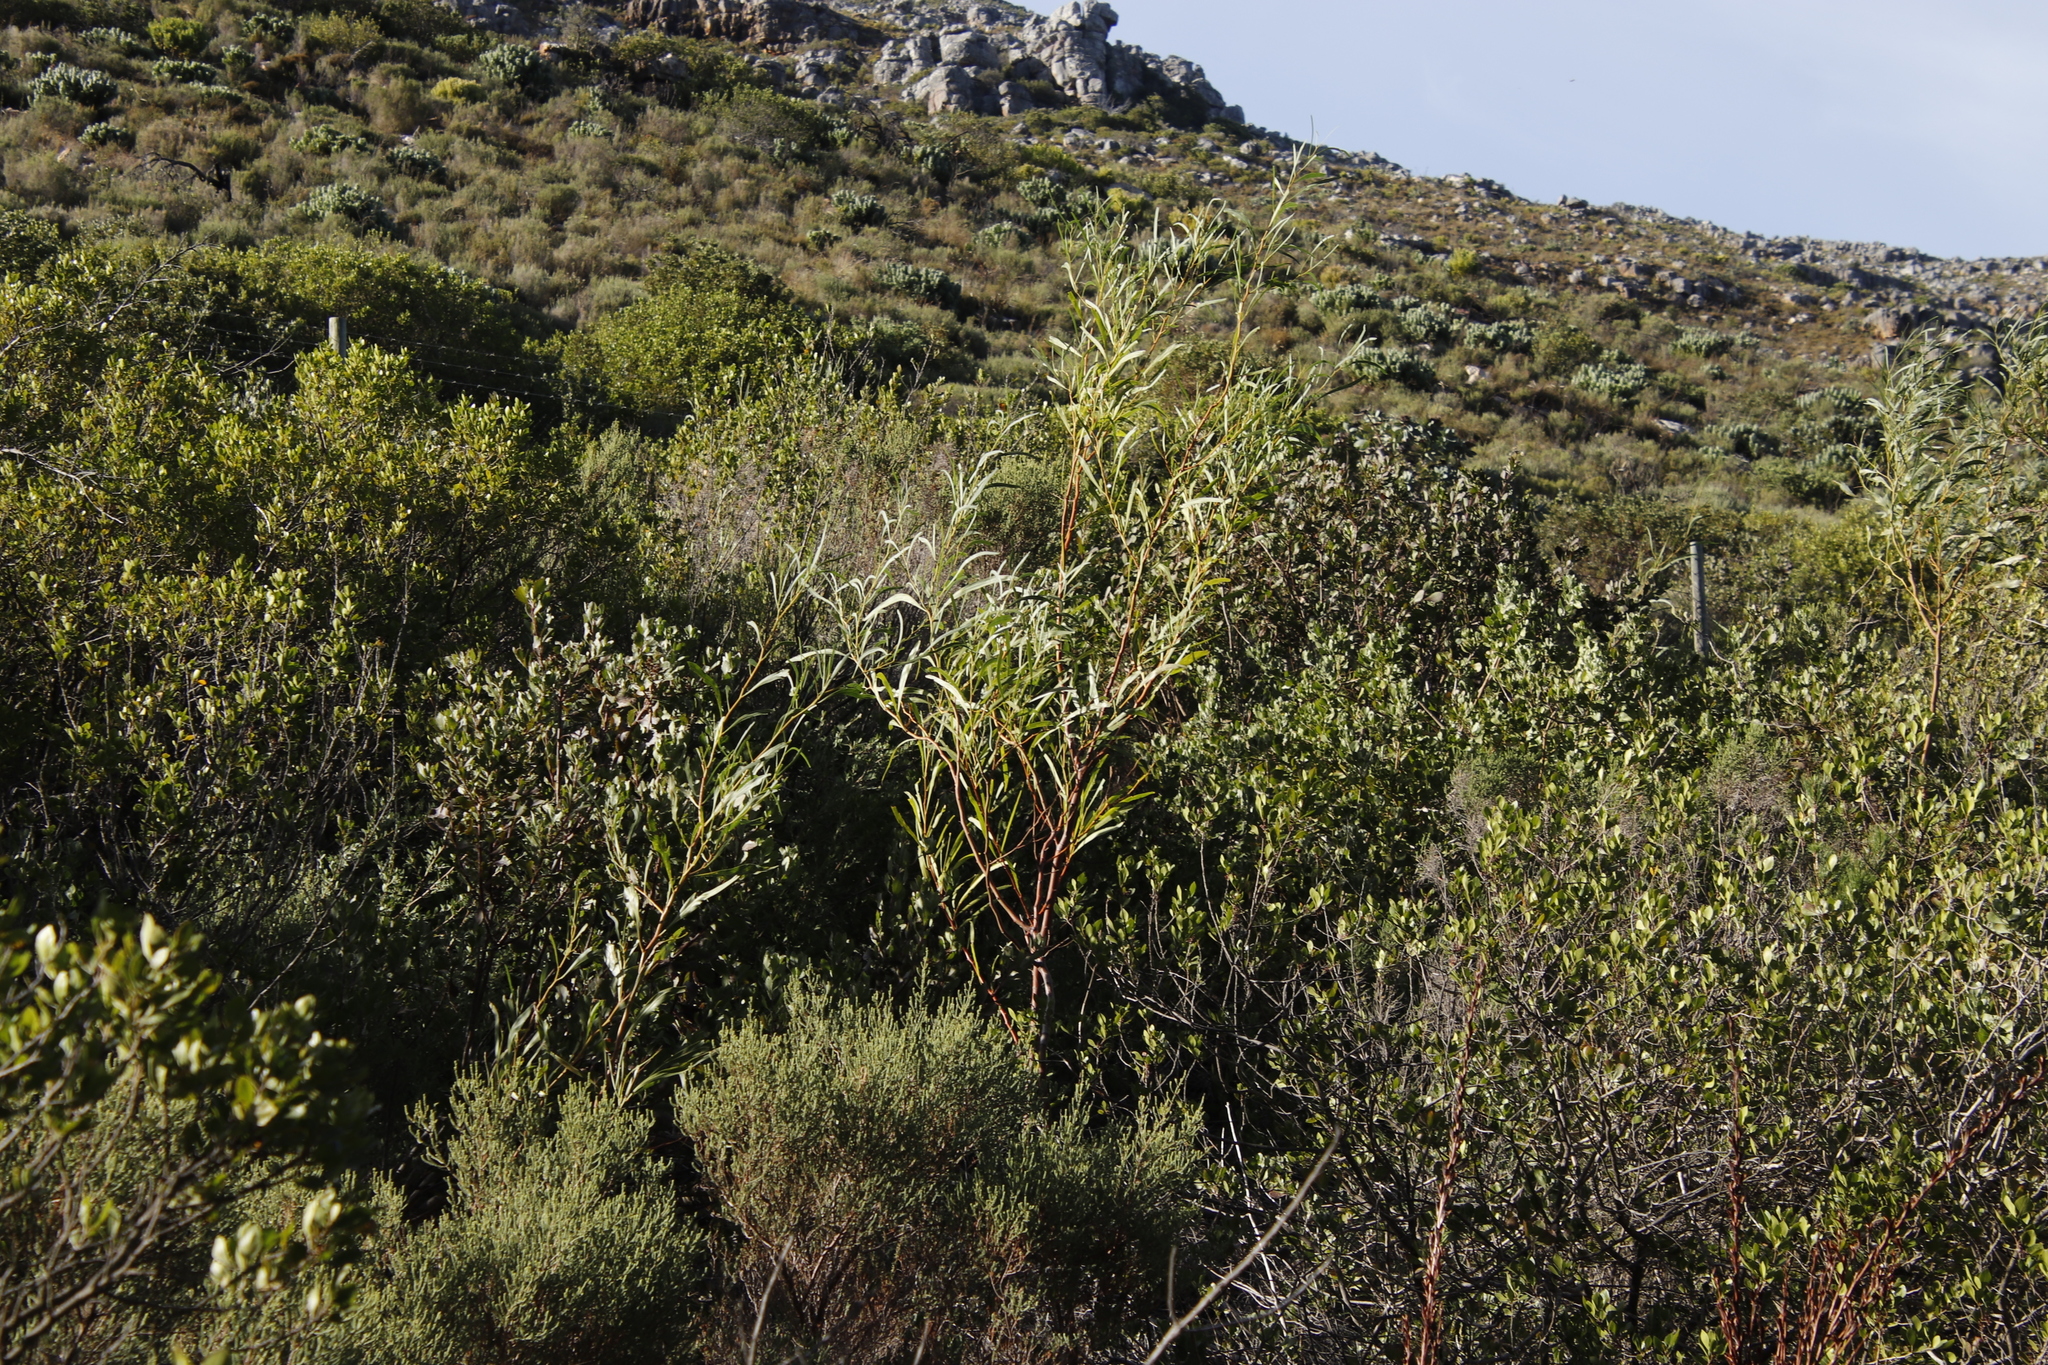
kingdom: Plantae
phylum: Tracheophyta
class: Magnoliopsida
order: Fabales
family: Fabaceae
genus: Acacia
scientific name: Acacia saligna
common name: Orange wattle
